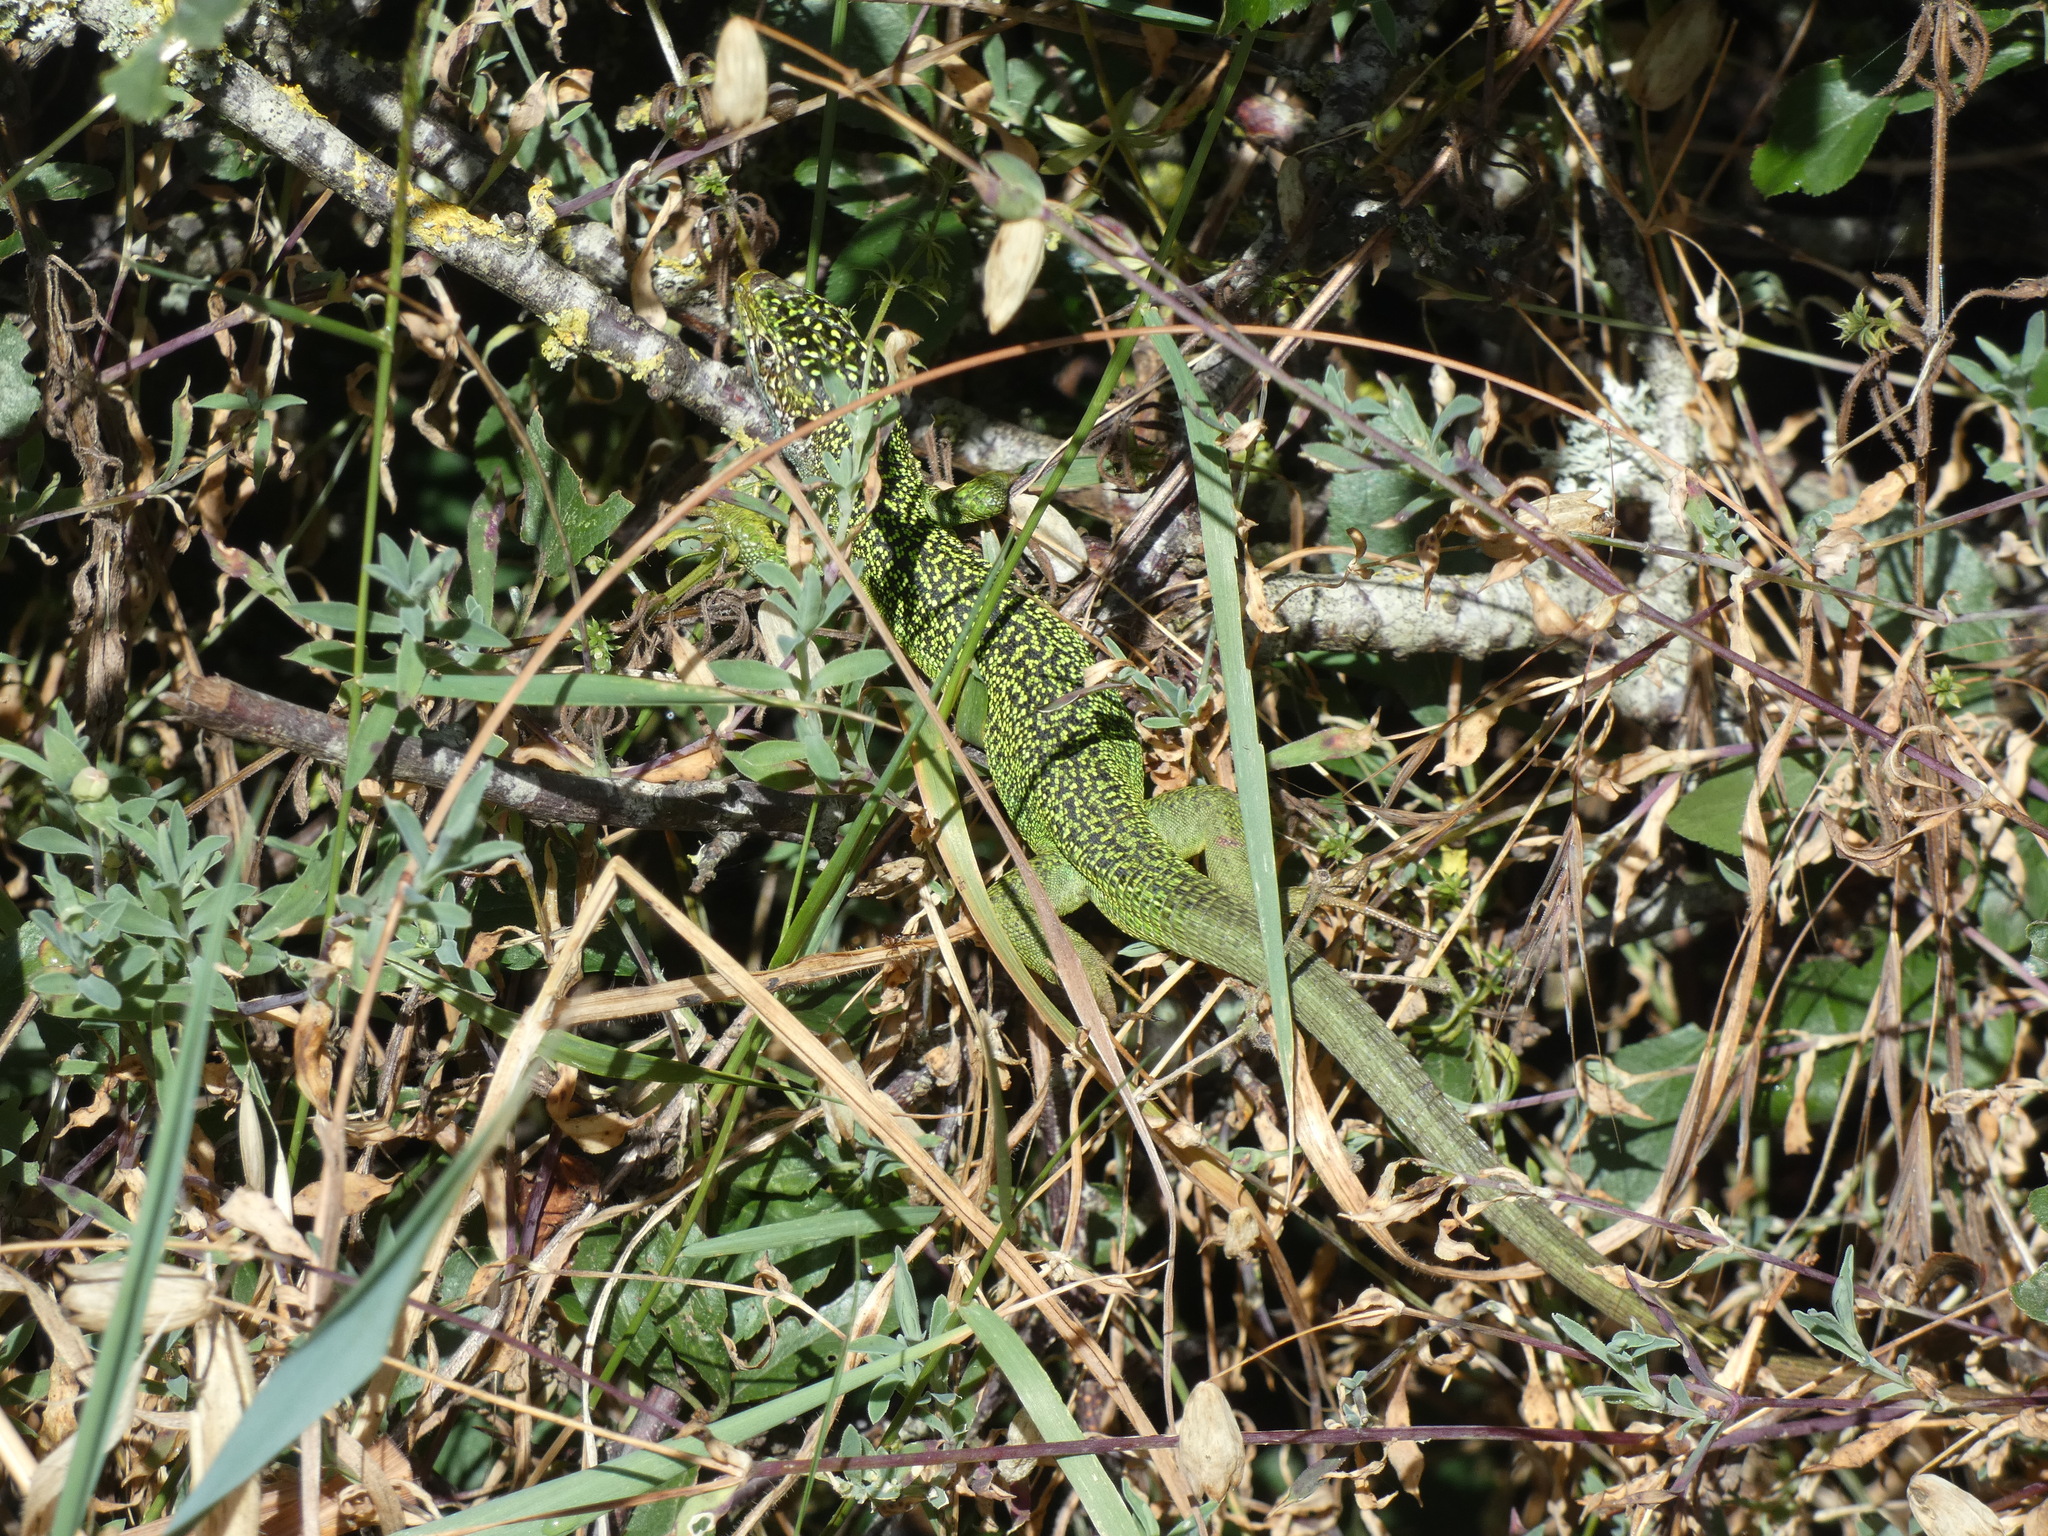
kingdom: Animalia
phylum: Chordata
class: Squamata
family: Lacertidae
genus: Lacerta
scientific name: Lacerta bilineata
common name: Western green lizard
